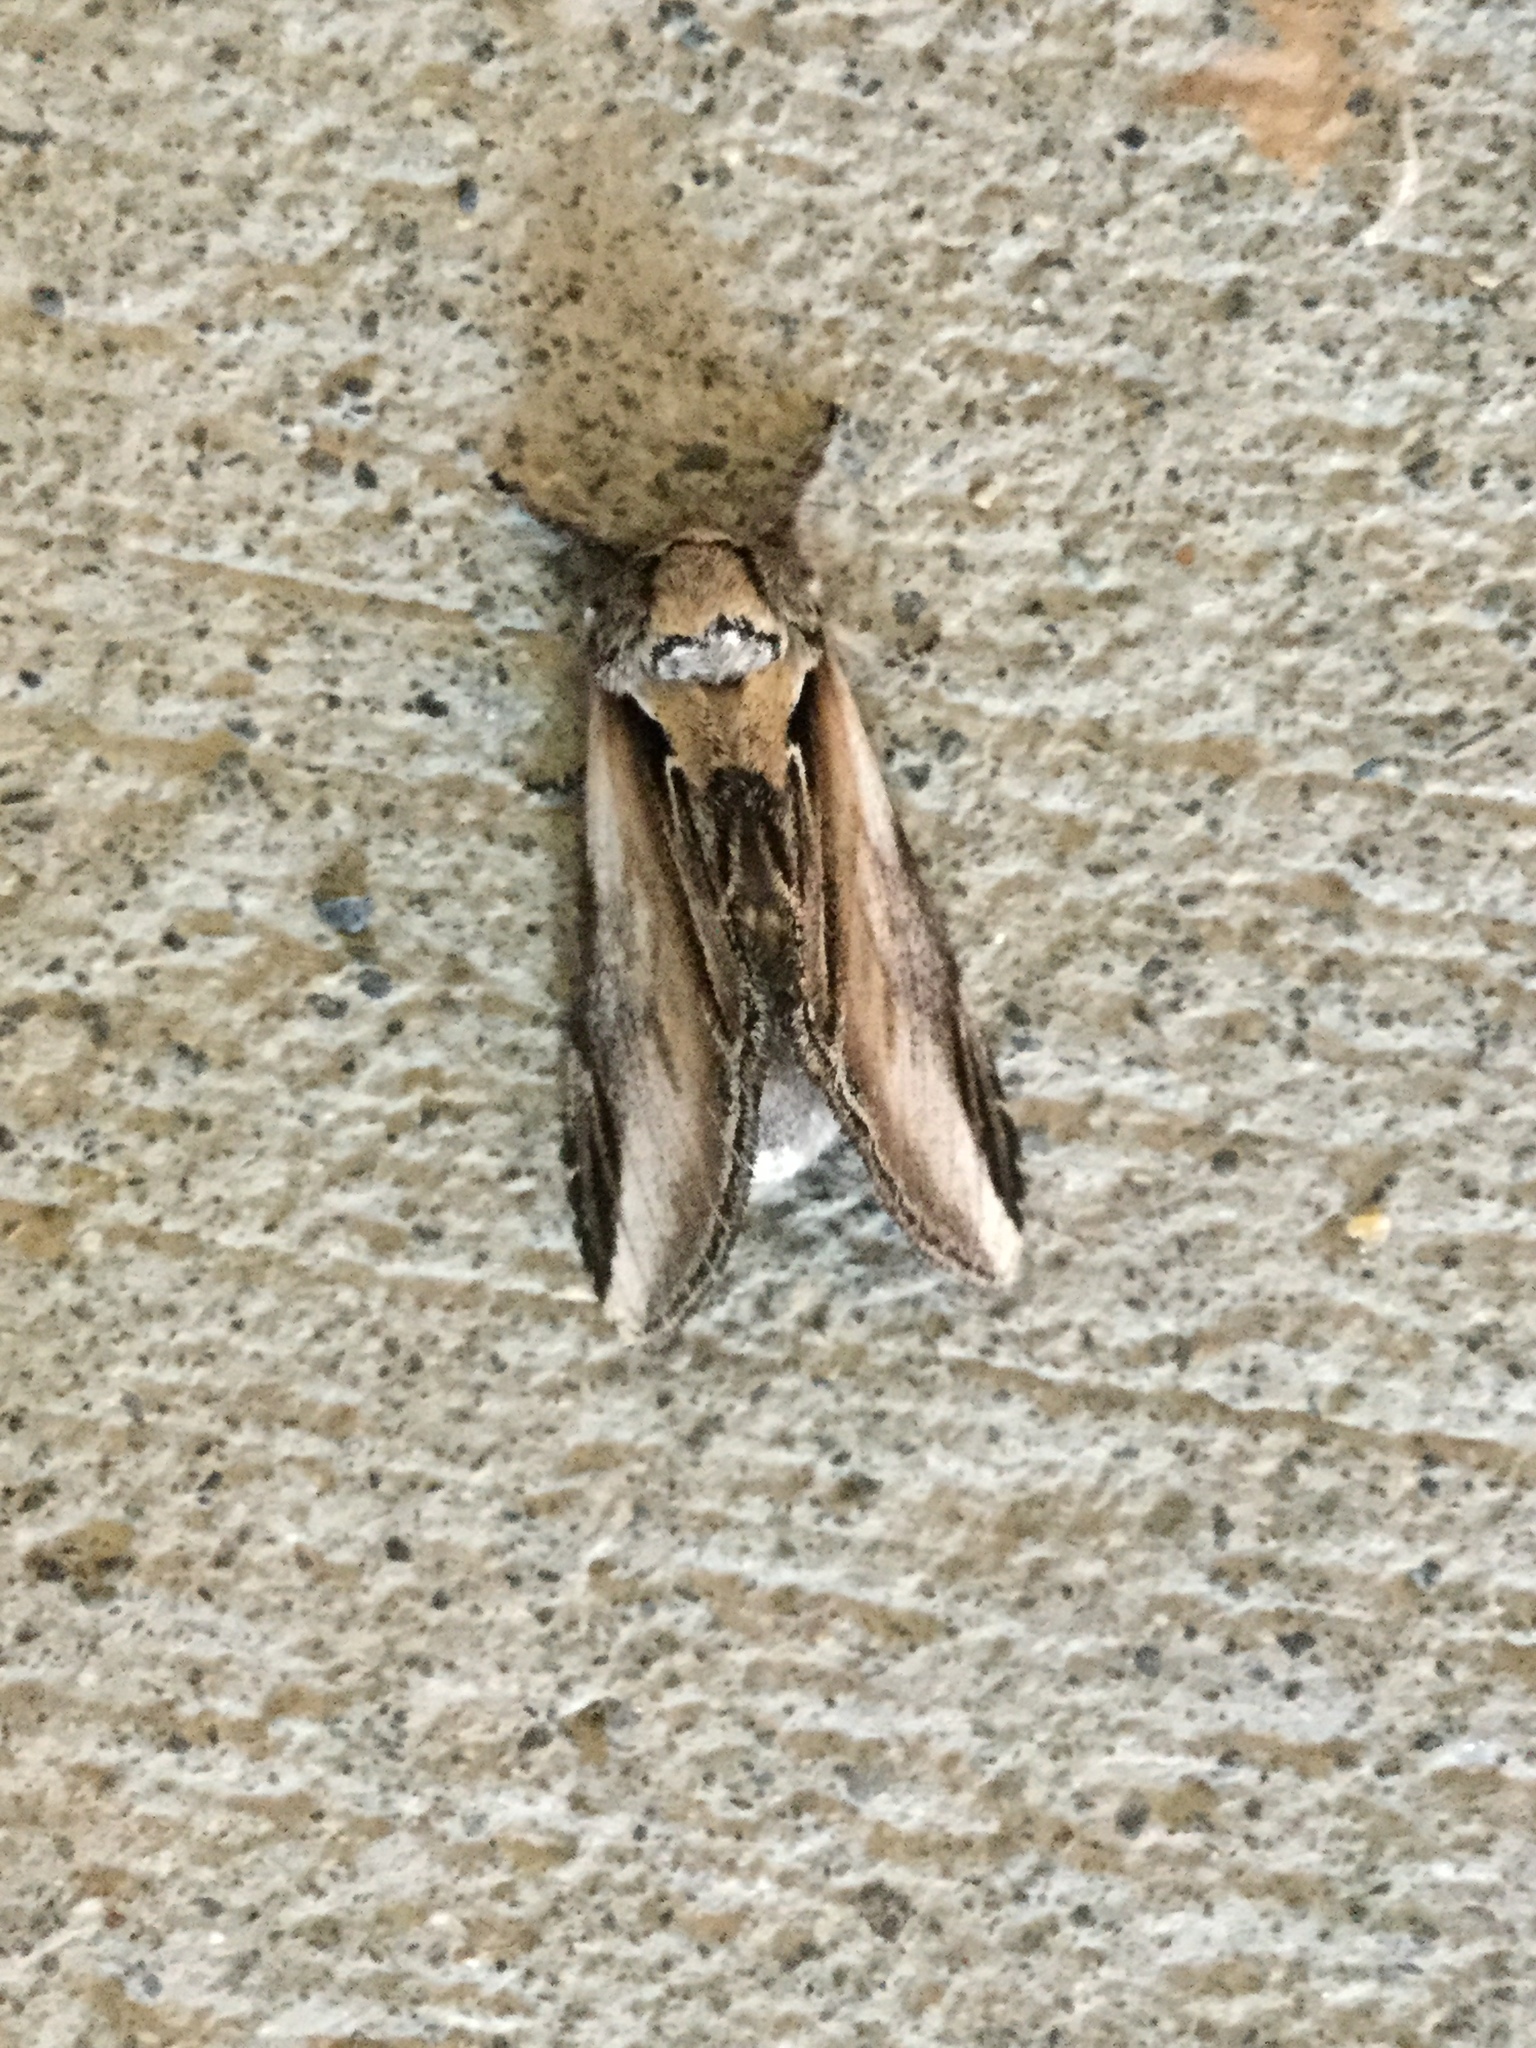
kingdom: Animalia
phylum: Arthropoda
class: Insecta
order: Lepidoptera
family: Notodontidae
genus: Pheosia
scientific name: Pheosia rimosa
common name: Black-rimmed prominent
